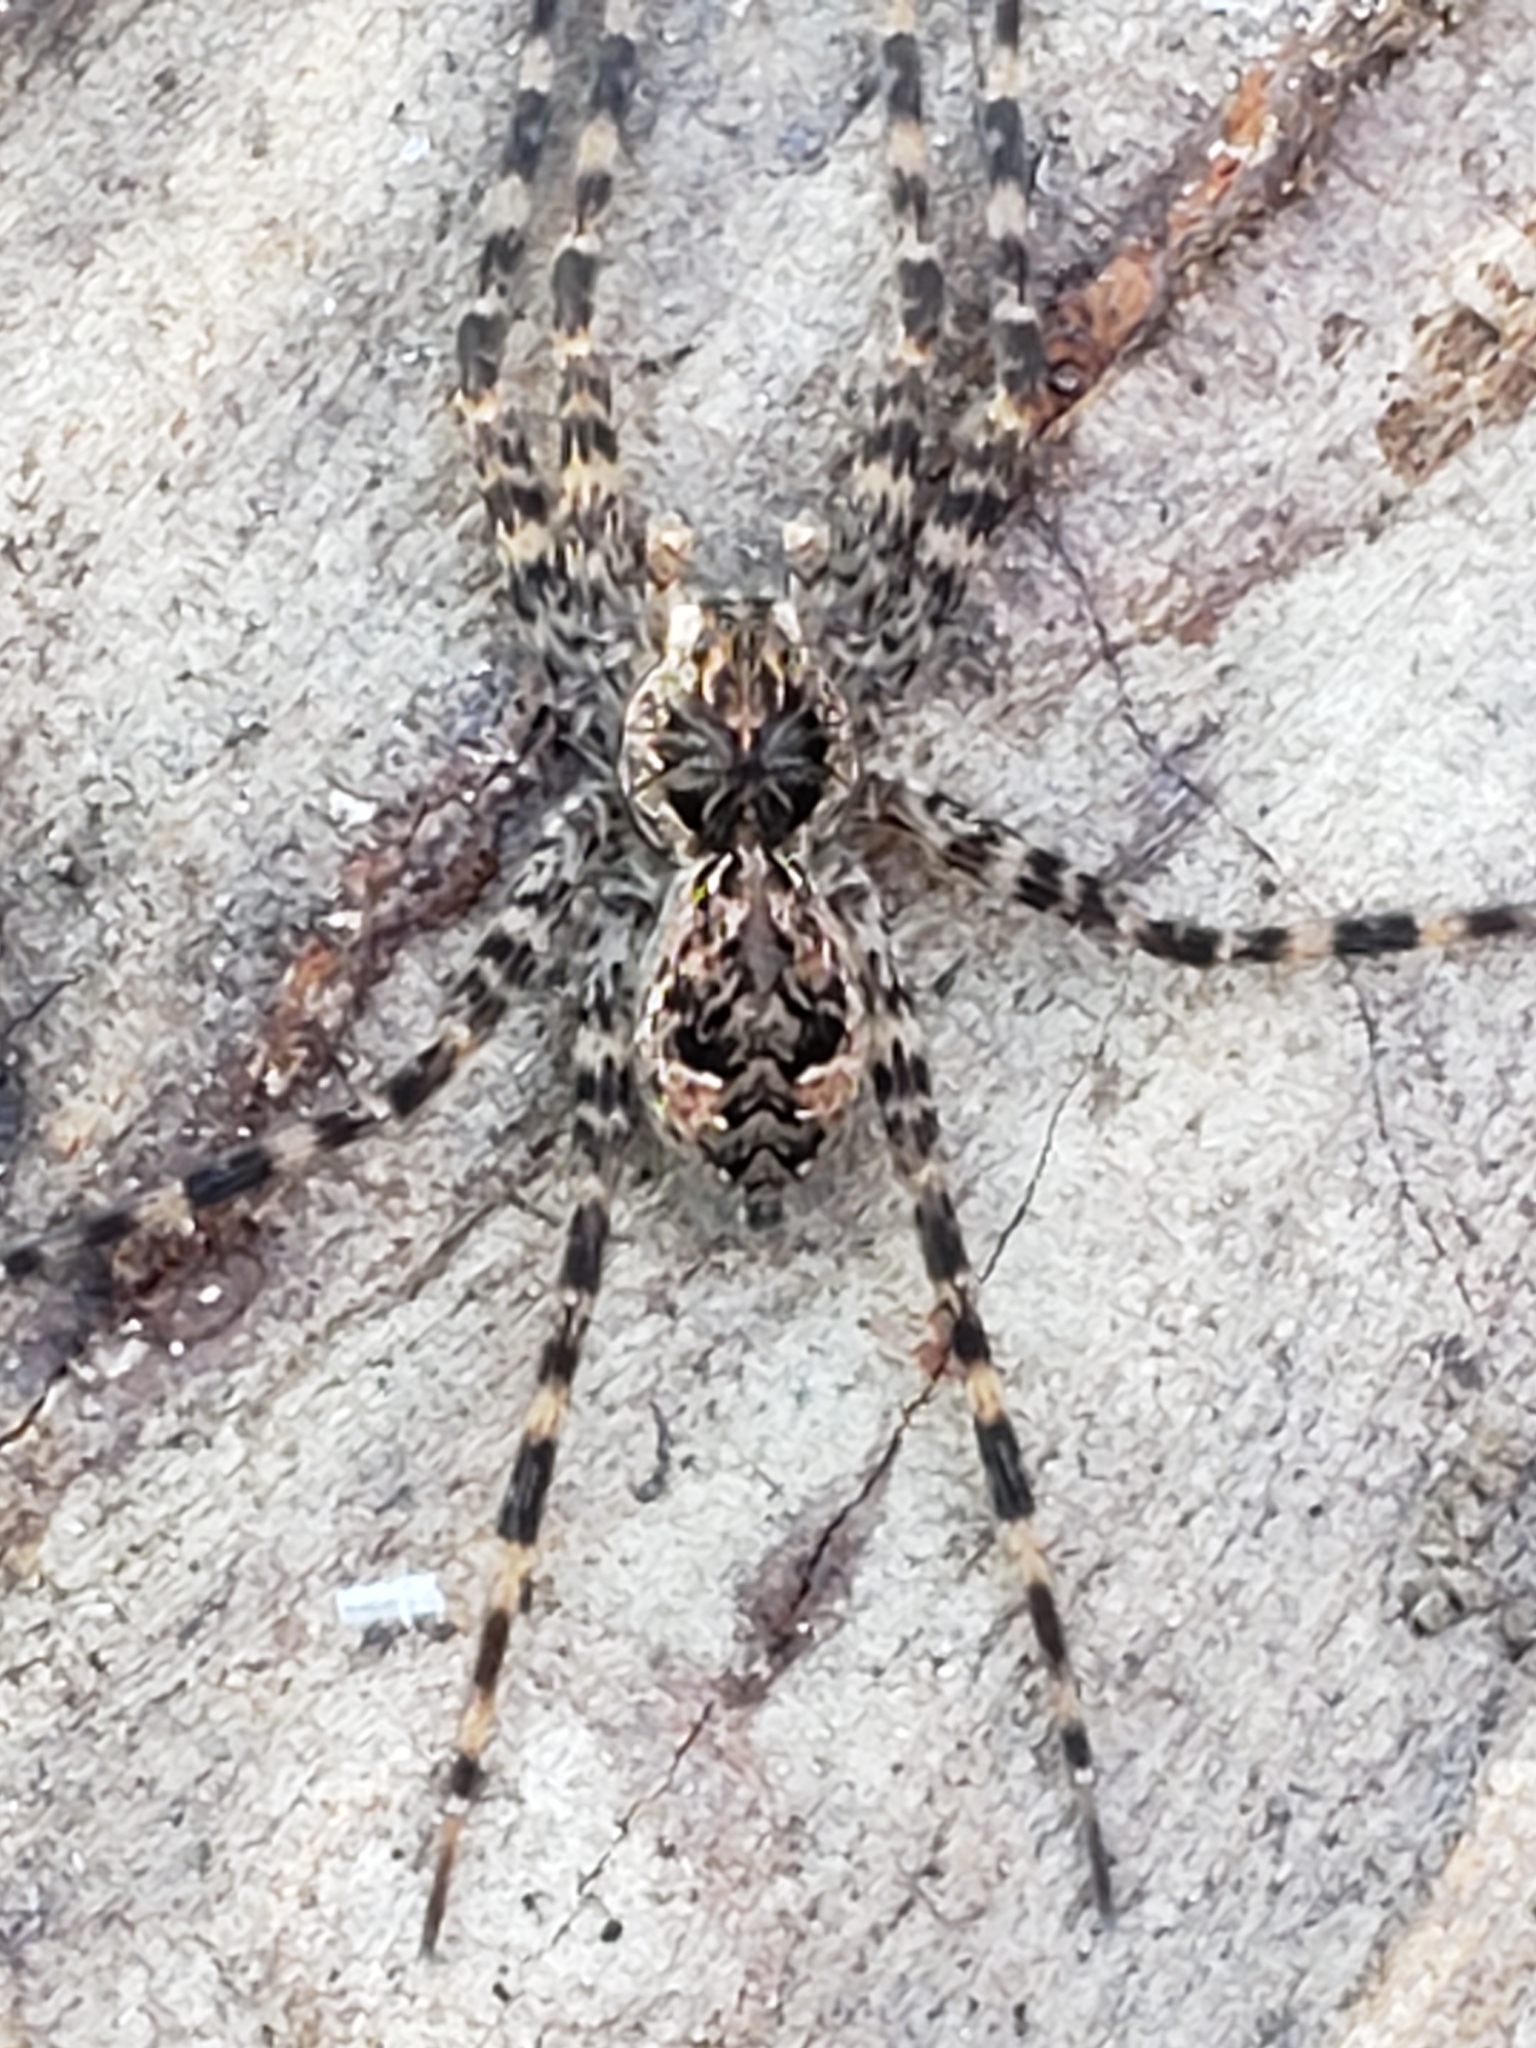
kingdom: Animalia
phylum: Arthropoda
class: Arachnida
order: Araneae
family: Pisauridae
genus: Dolomedes
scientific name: Dolomedes tenebrosus
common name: Dark fishing spider
